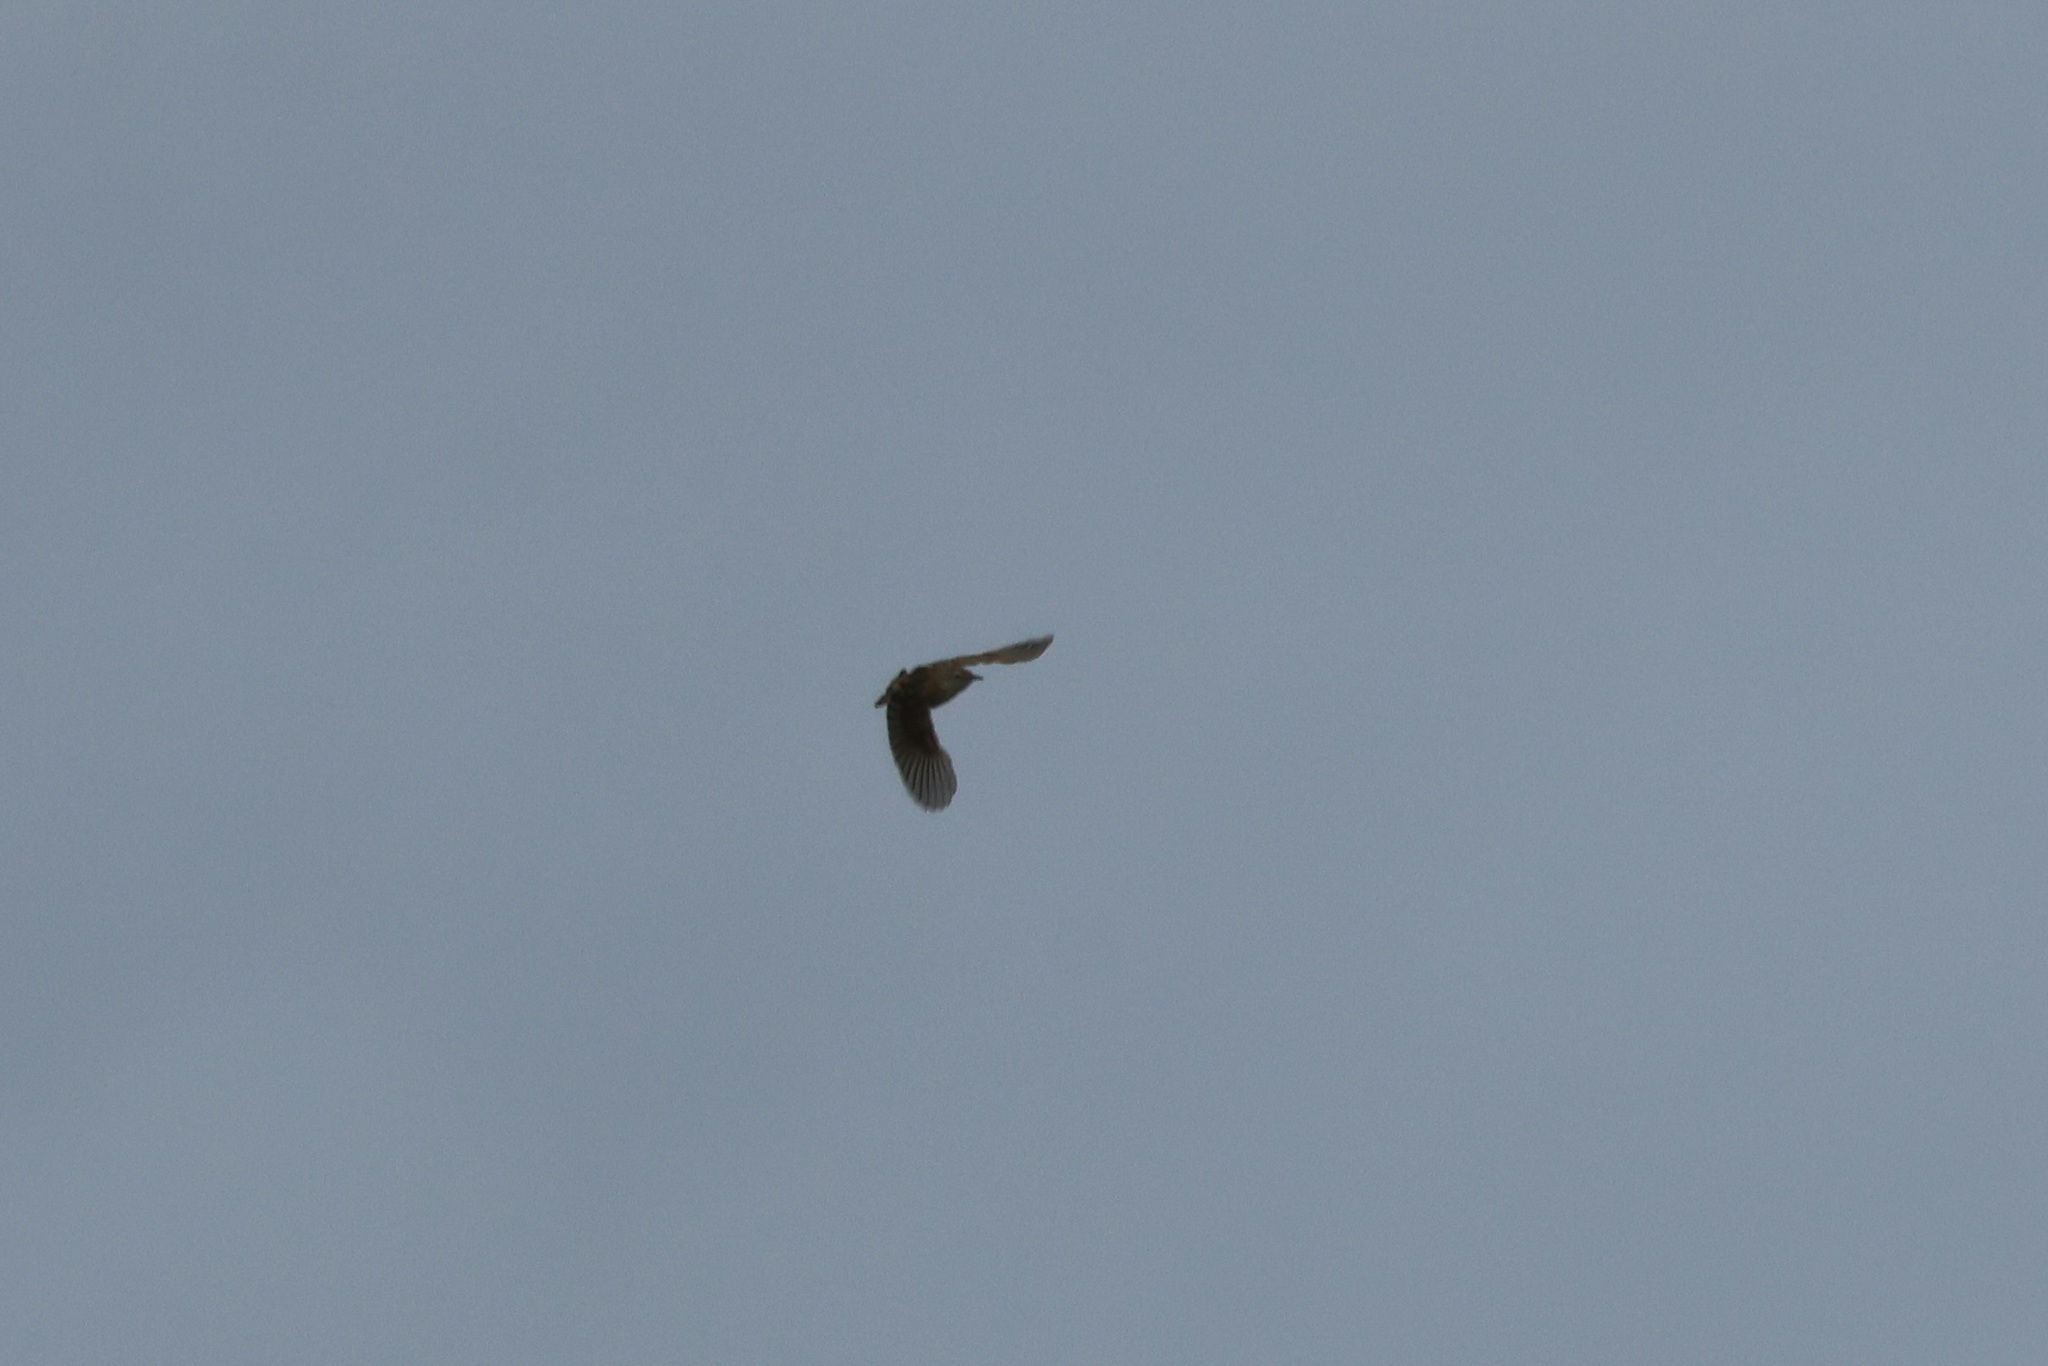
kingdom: Animalia
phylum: Chordata
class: Aves
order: Passeriformes
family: Cisticolidae
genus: Cisticola
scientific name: Cisticola juncidis
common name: Zitting cisticola
